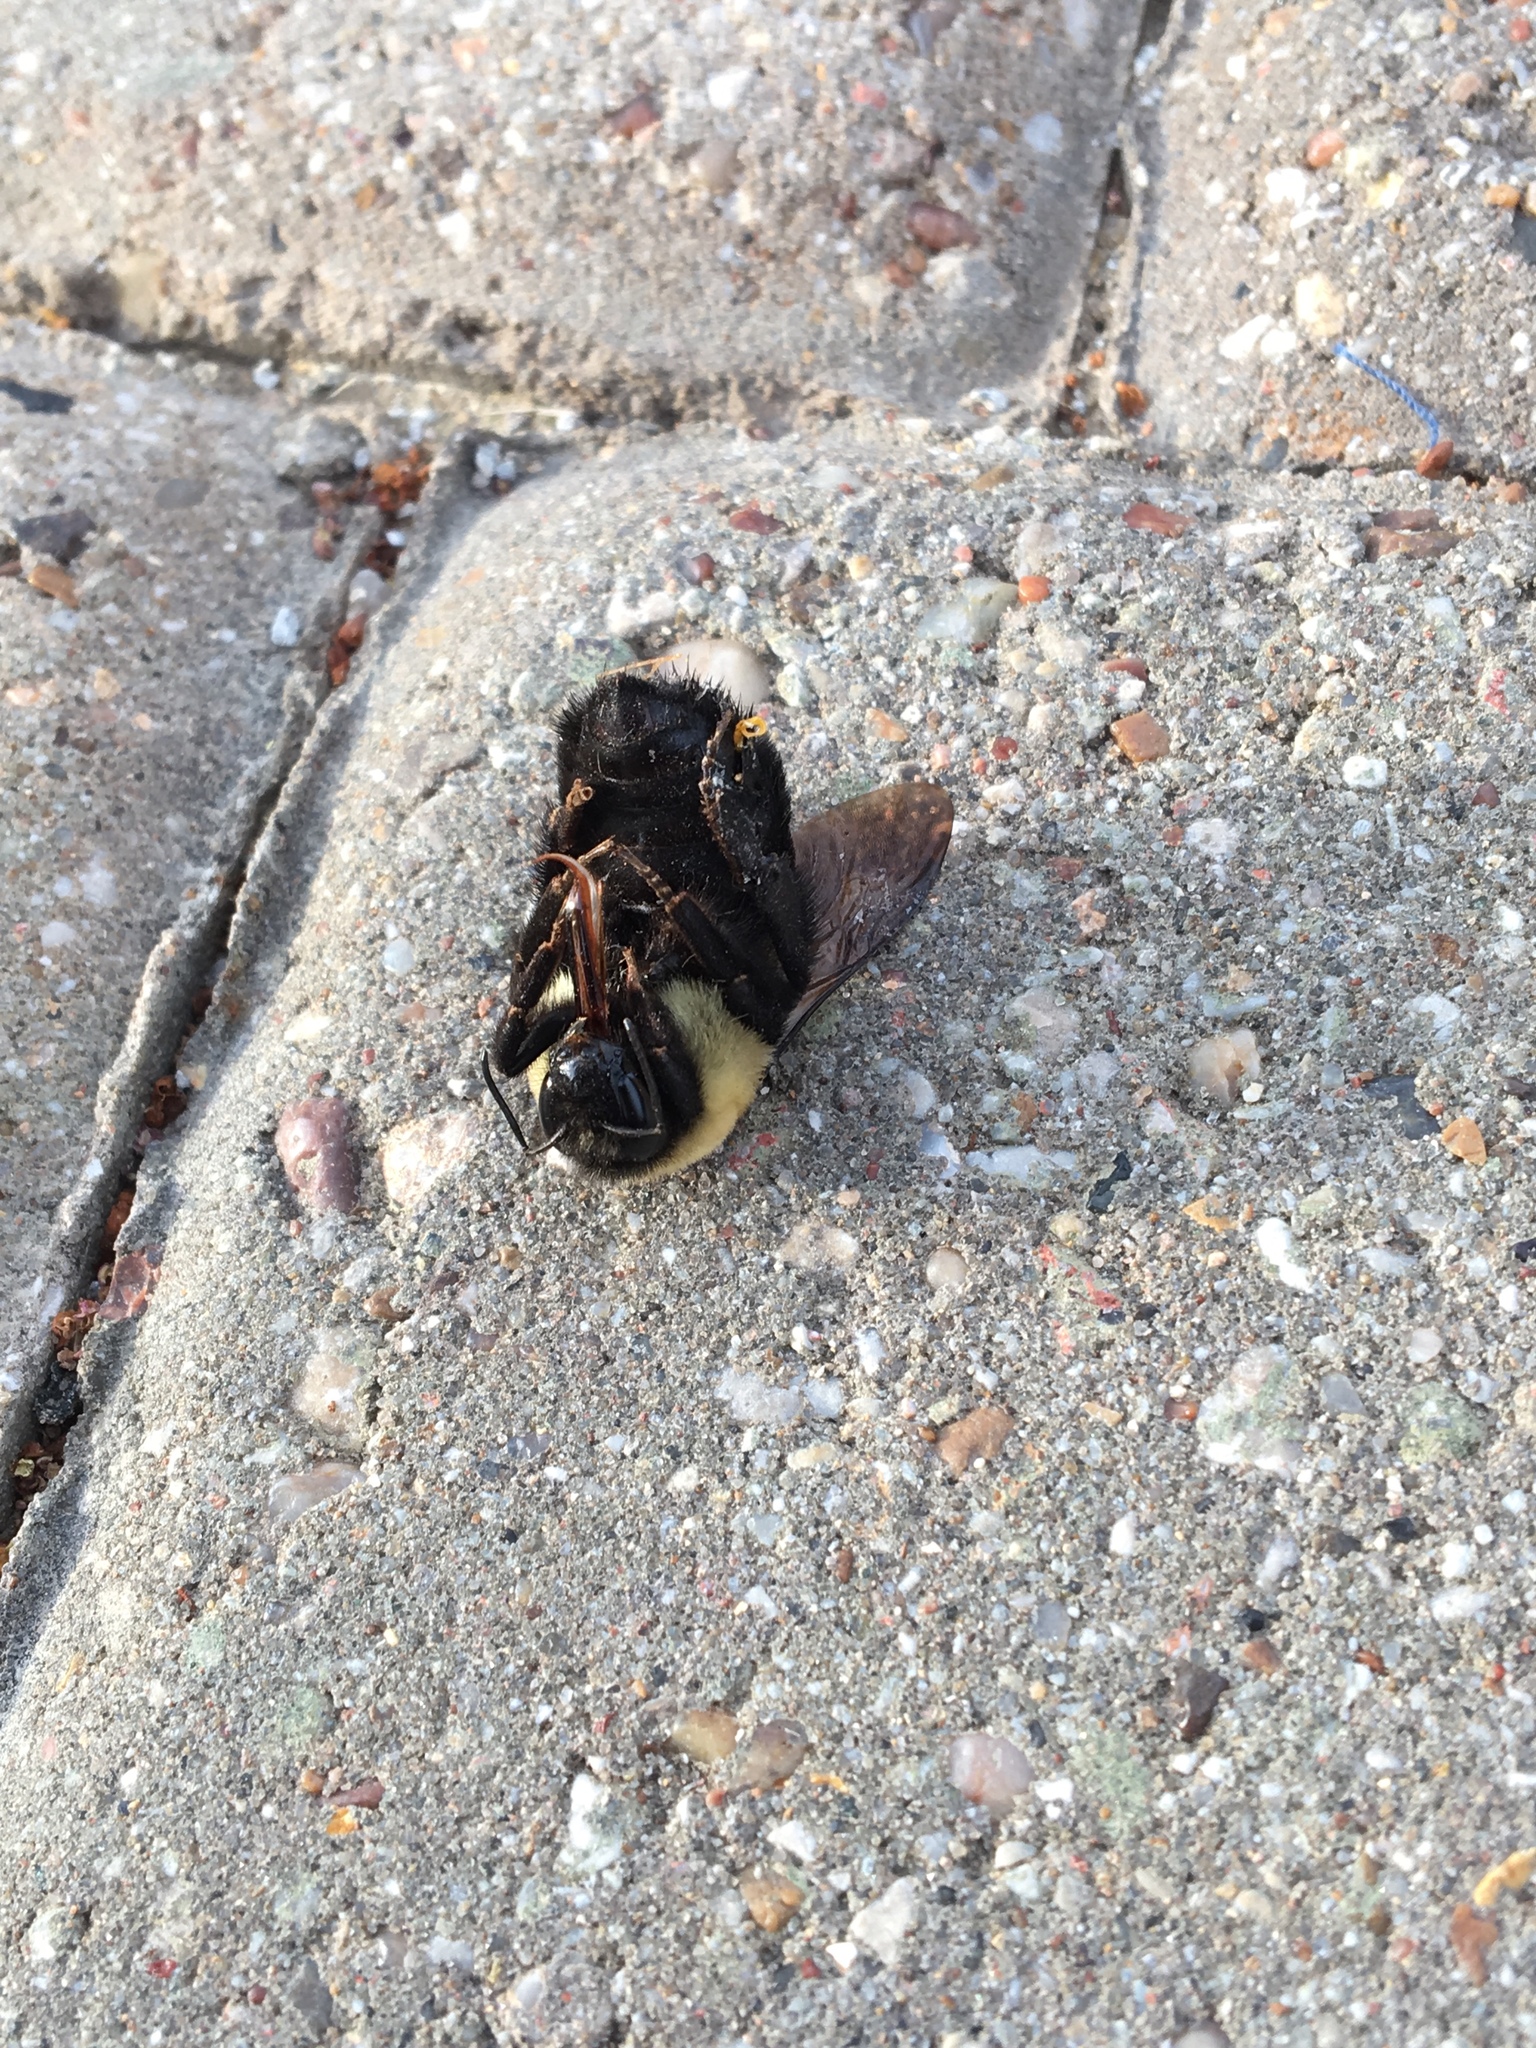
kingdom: Animalia
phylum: Arthropoda
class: Insecta
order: Hymenoptera
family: Apidae
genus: Bombus
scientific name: Bombus griseocollis
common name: Brown-belted bumble bee
